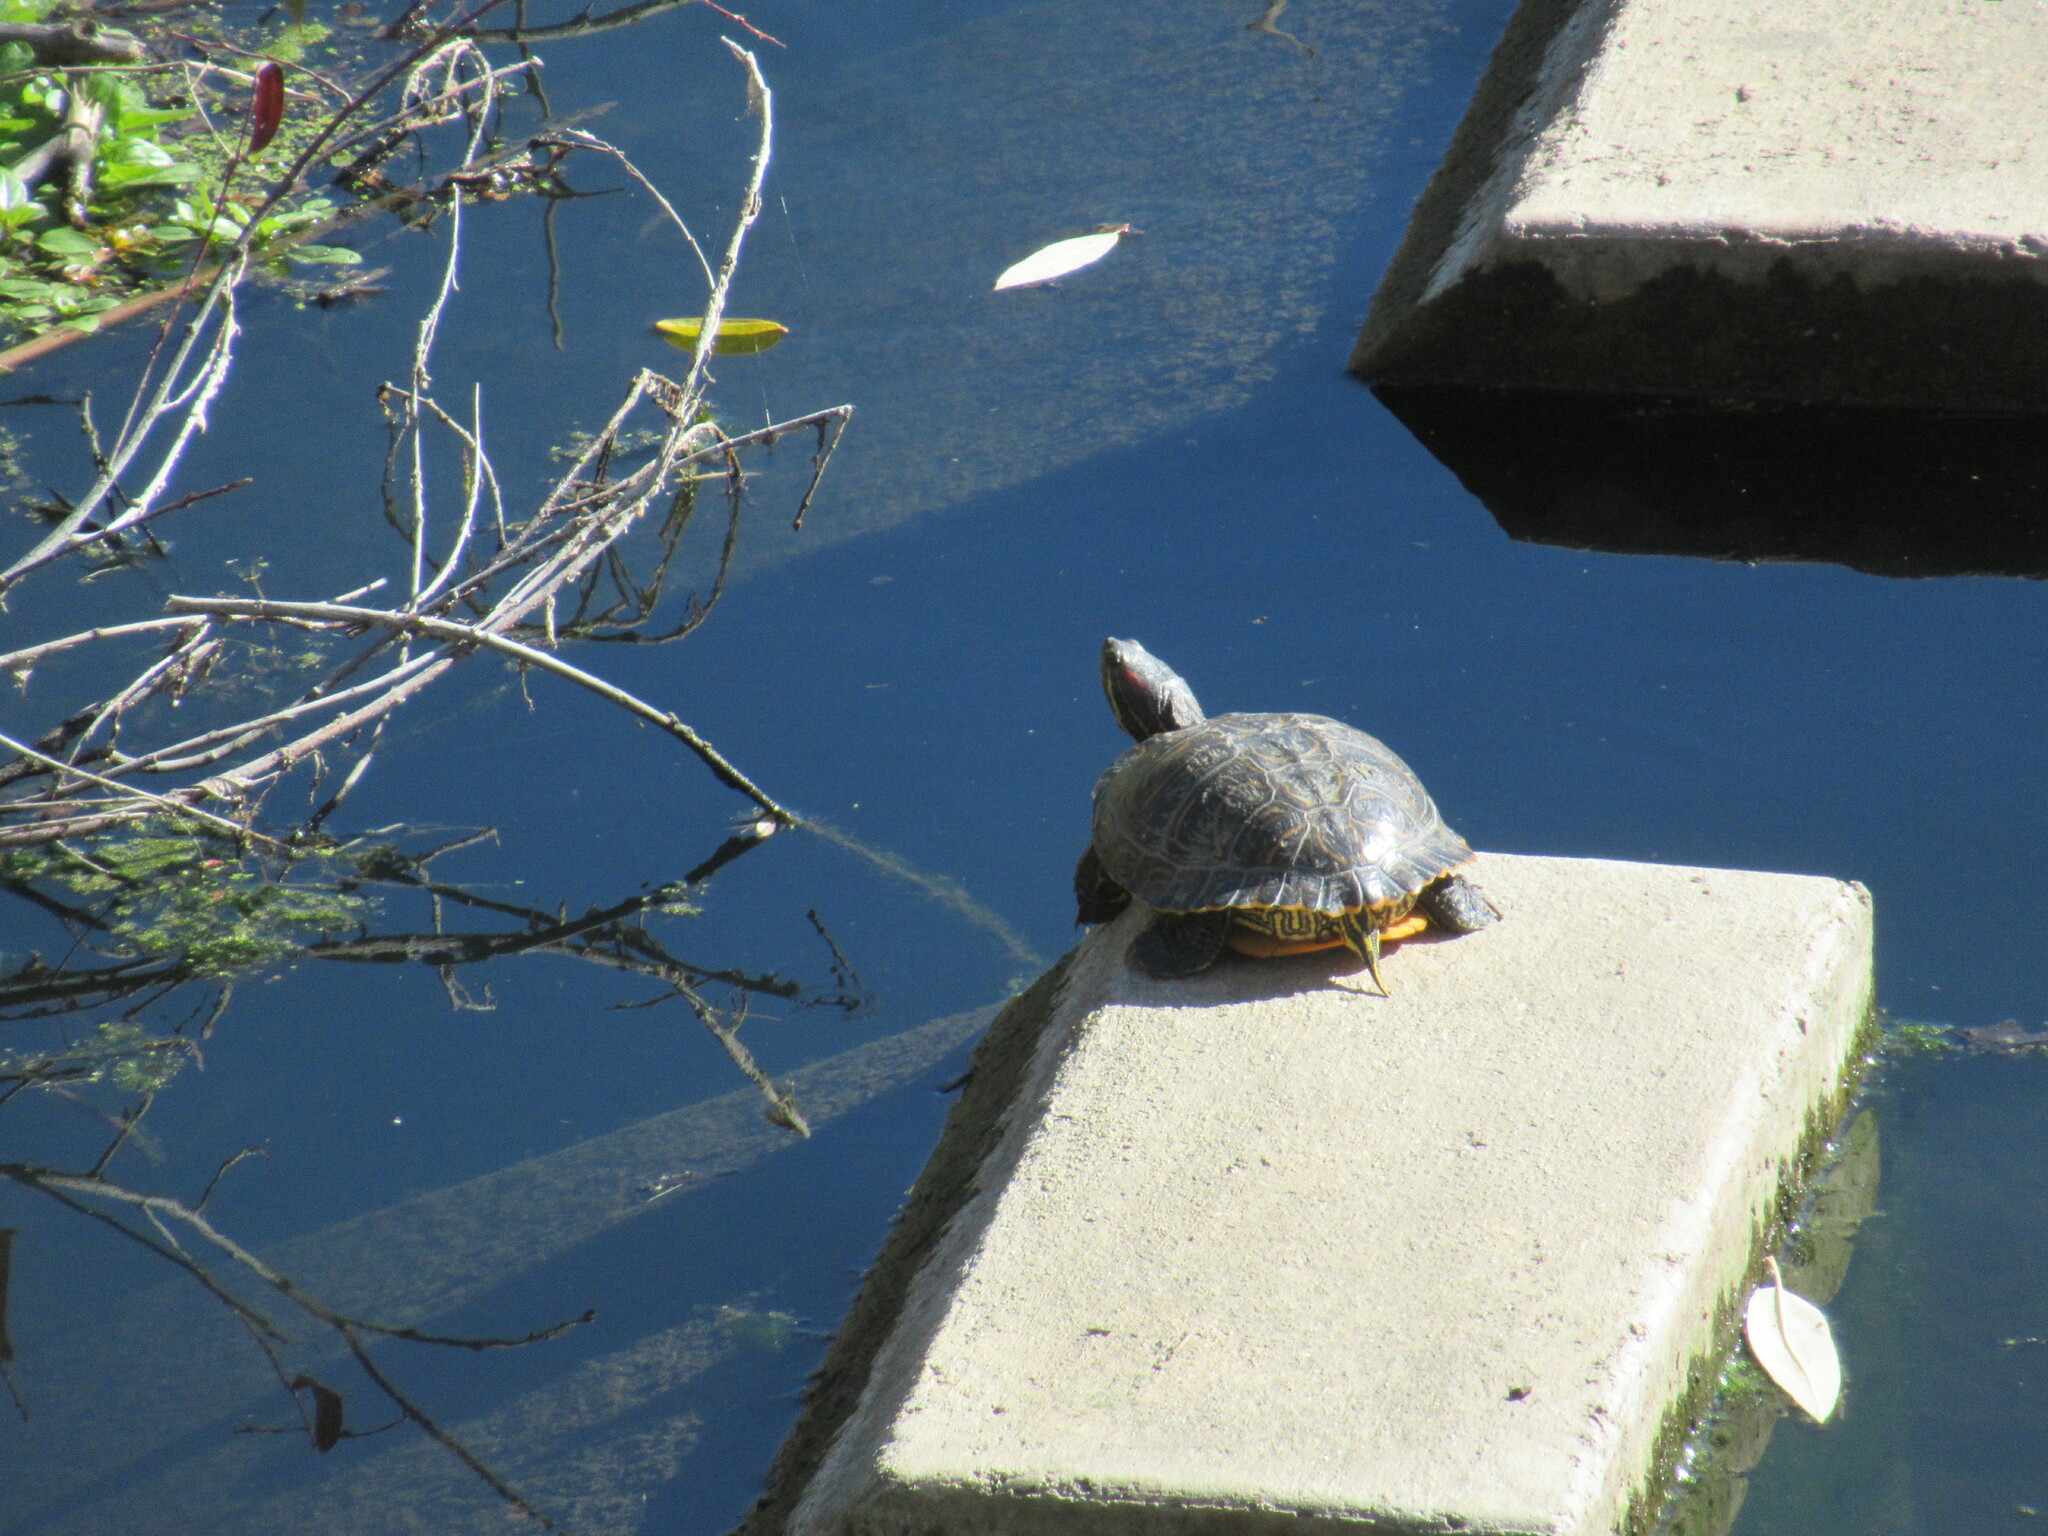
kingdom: Animalia
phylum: Chordata
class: Testudines
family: Emydidae
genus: Trachemys
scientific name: Trachemys scripta
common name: Slider
